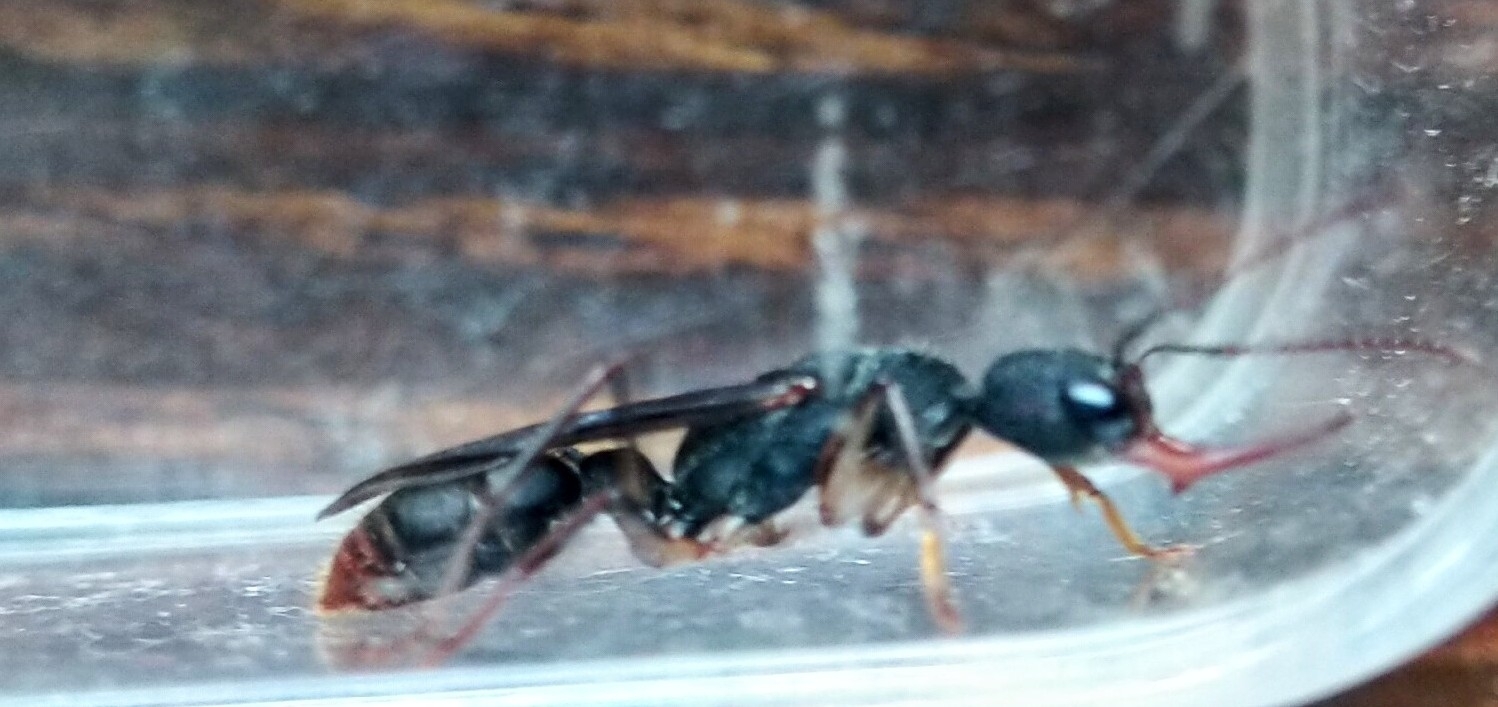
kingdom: Animalia
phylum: Arthropoda
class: Insecta
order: Hymenoptera
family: Formicidae
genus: Harpegnathos
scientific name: Harpegnathos venator
